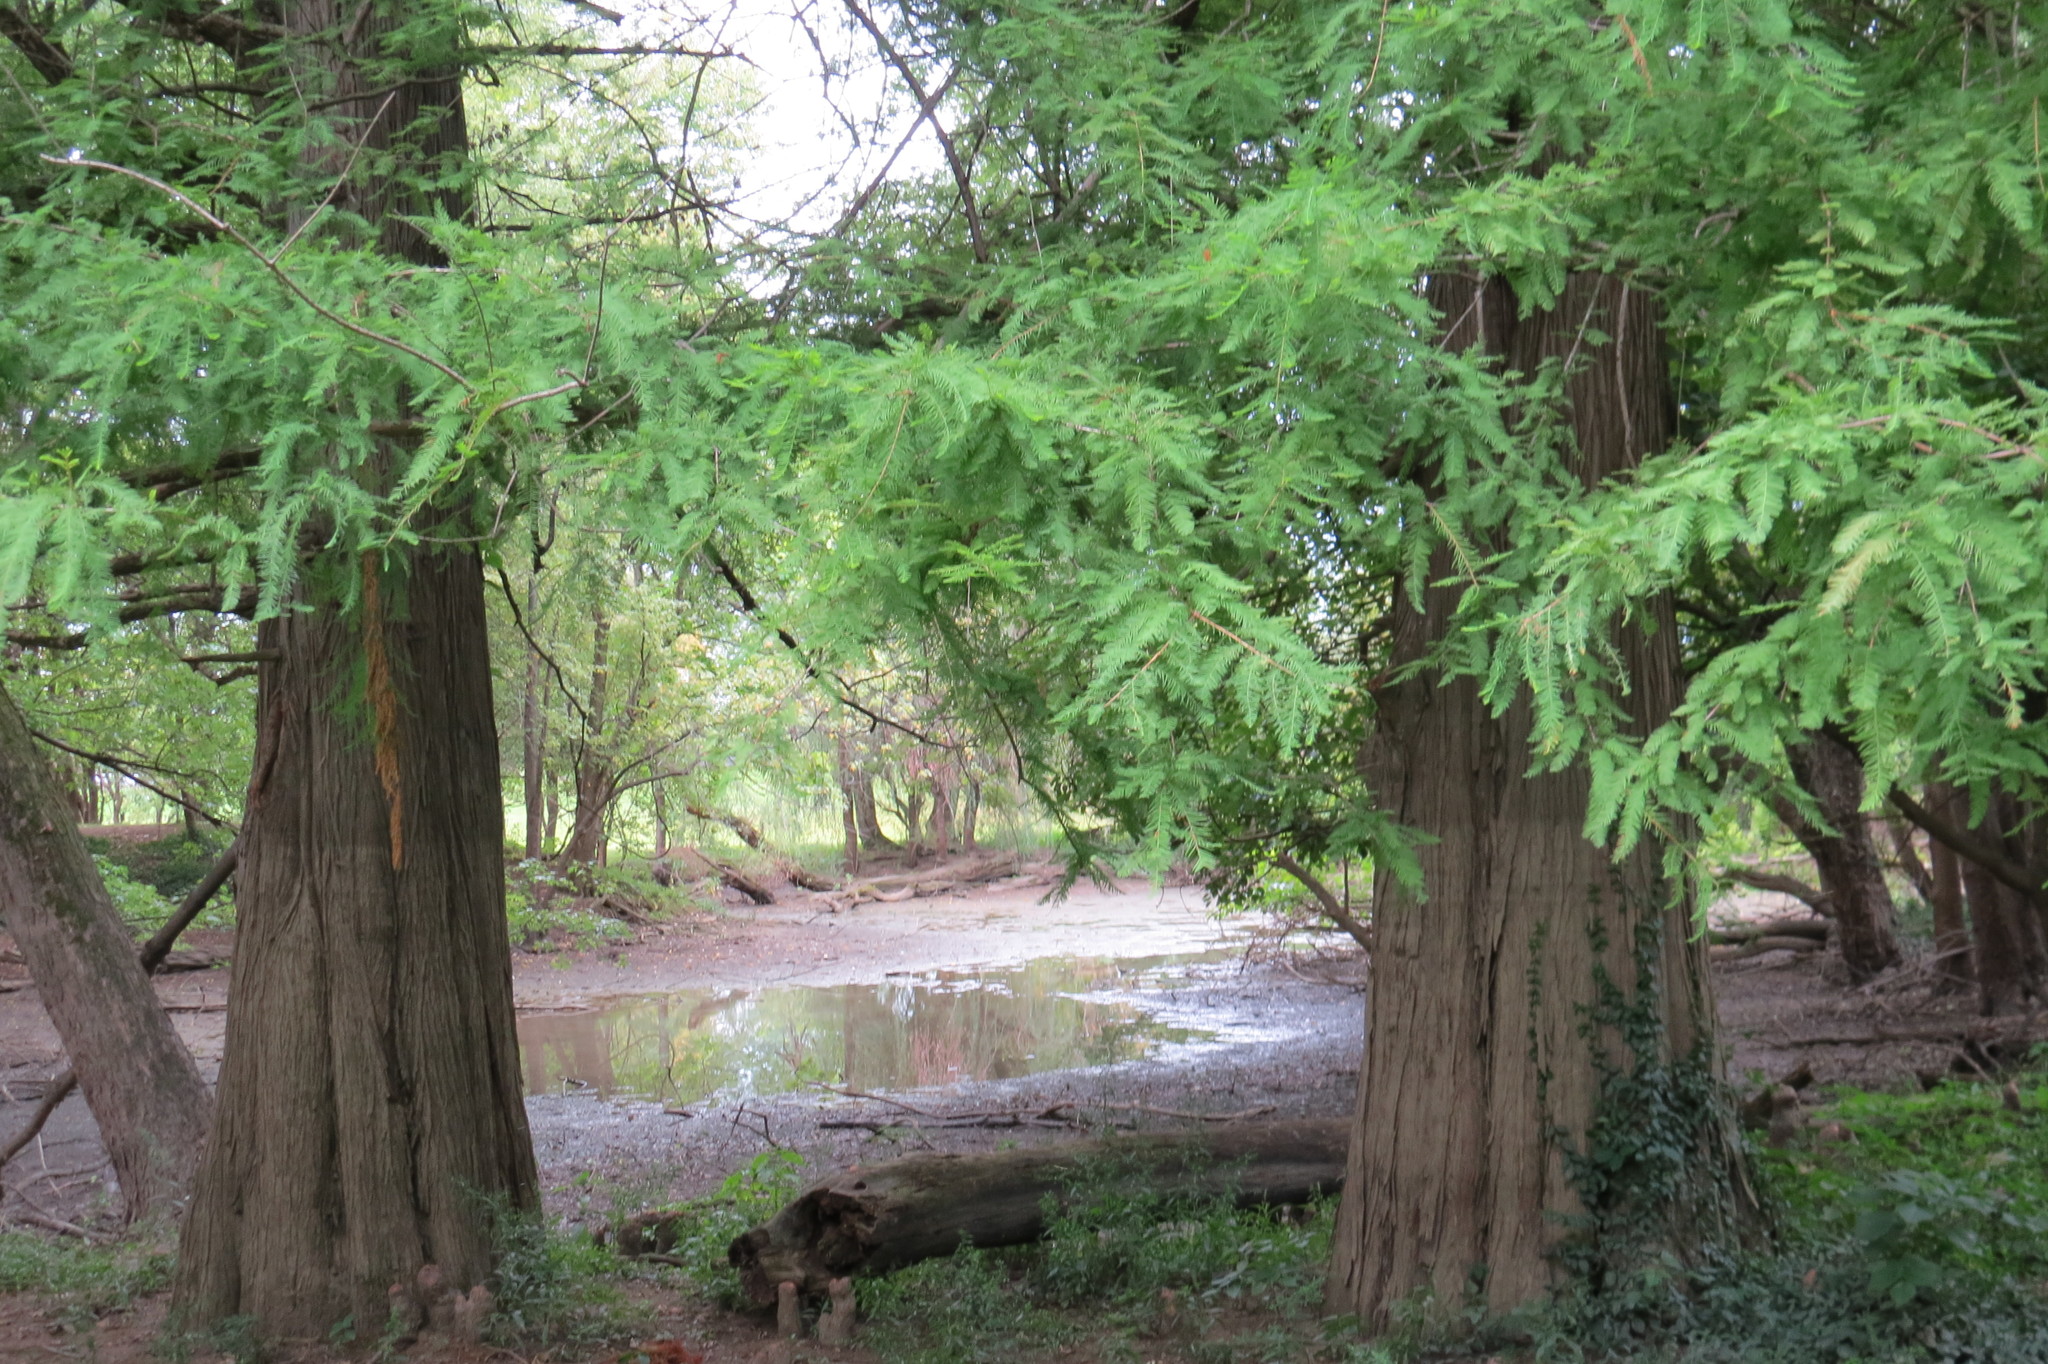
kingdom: Plantae
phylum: Tracheophyta
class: Pinopsida
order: Pinales
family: Cupressaceae
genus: Taxodium
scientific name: Taxodium distichum
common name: Bald cypress
